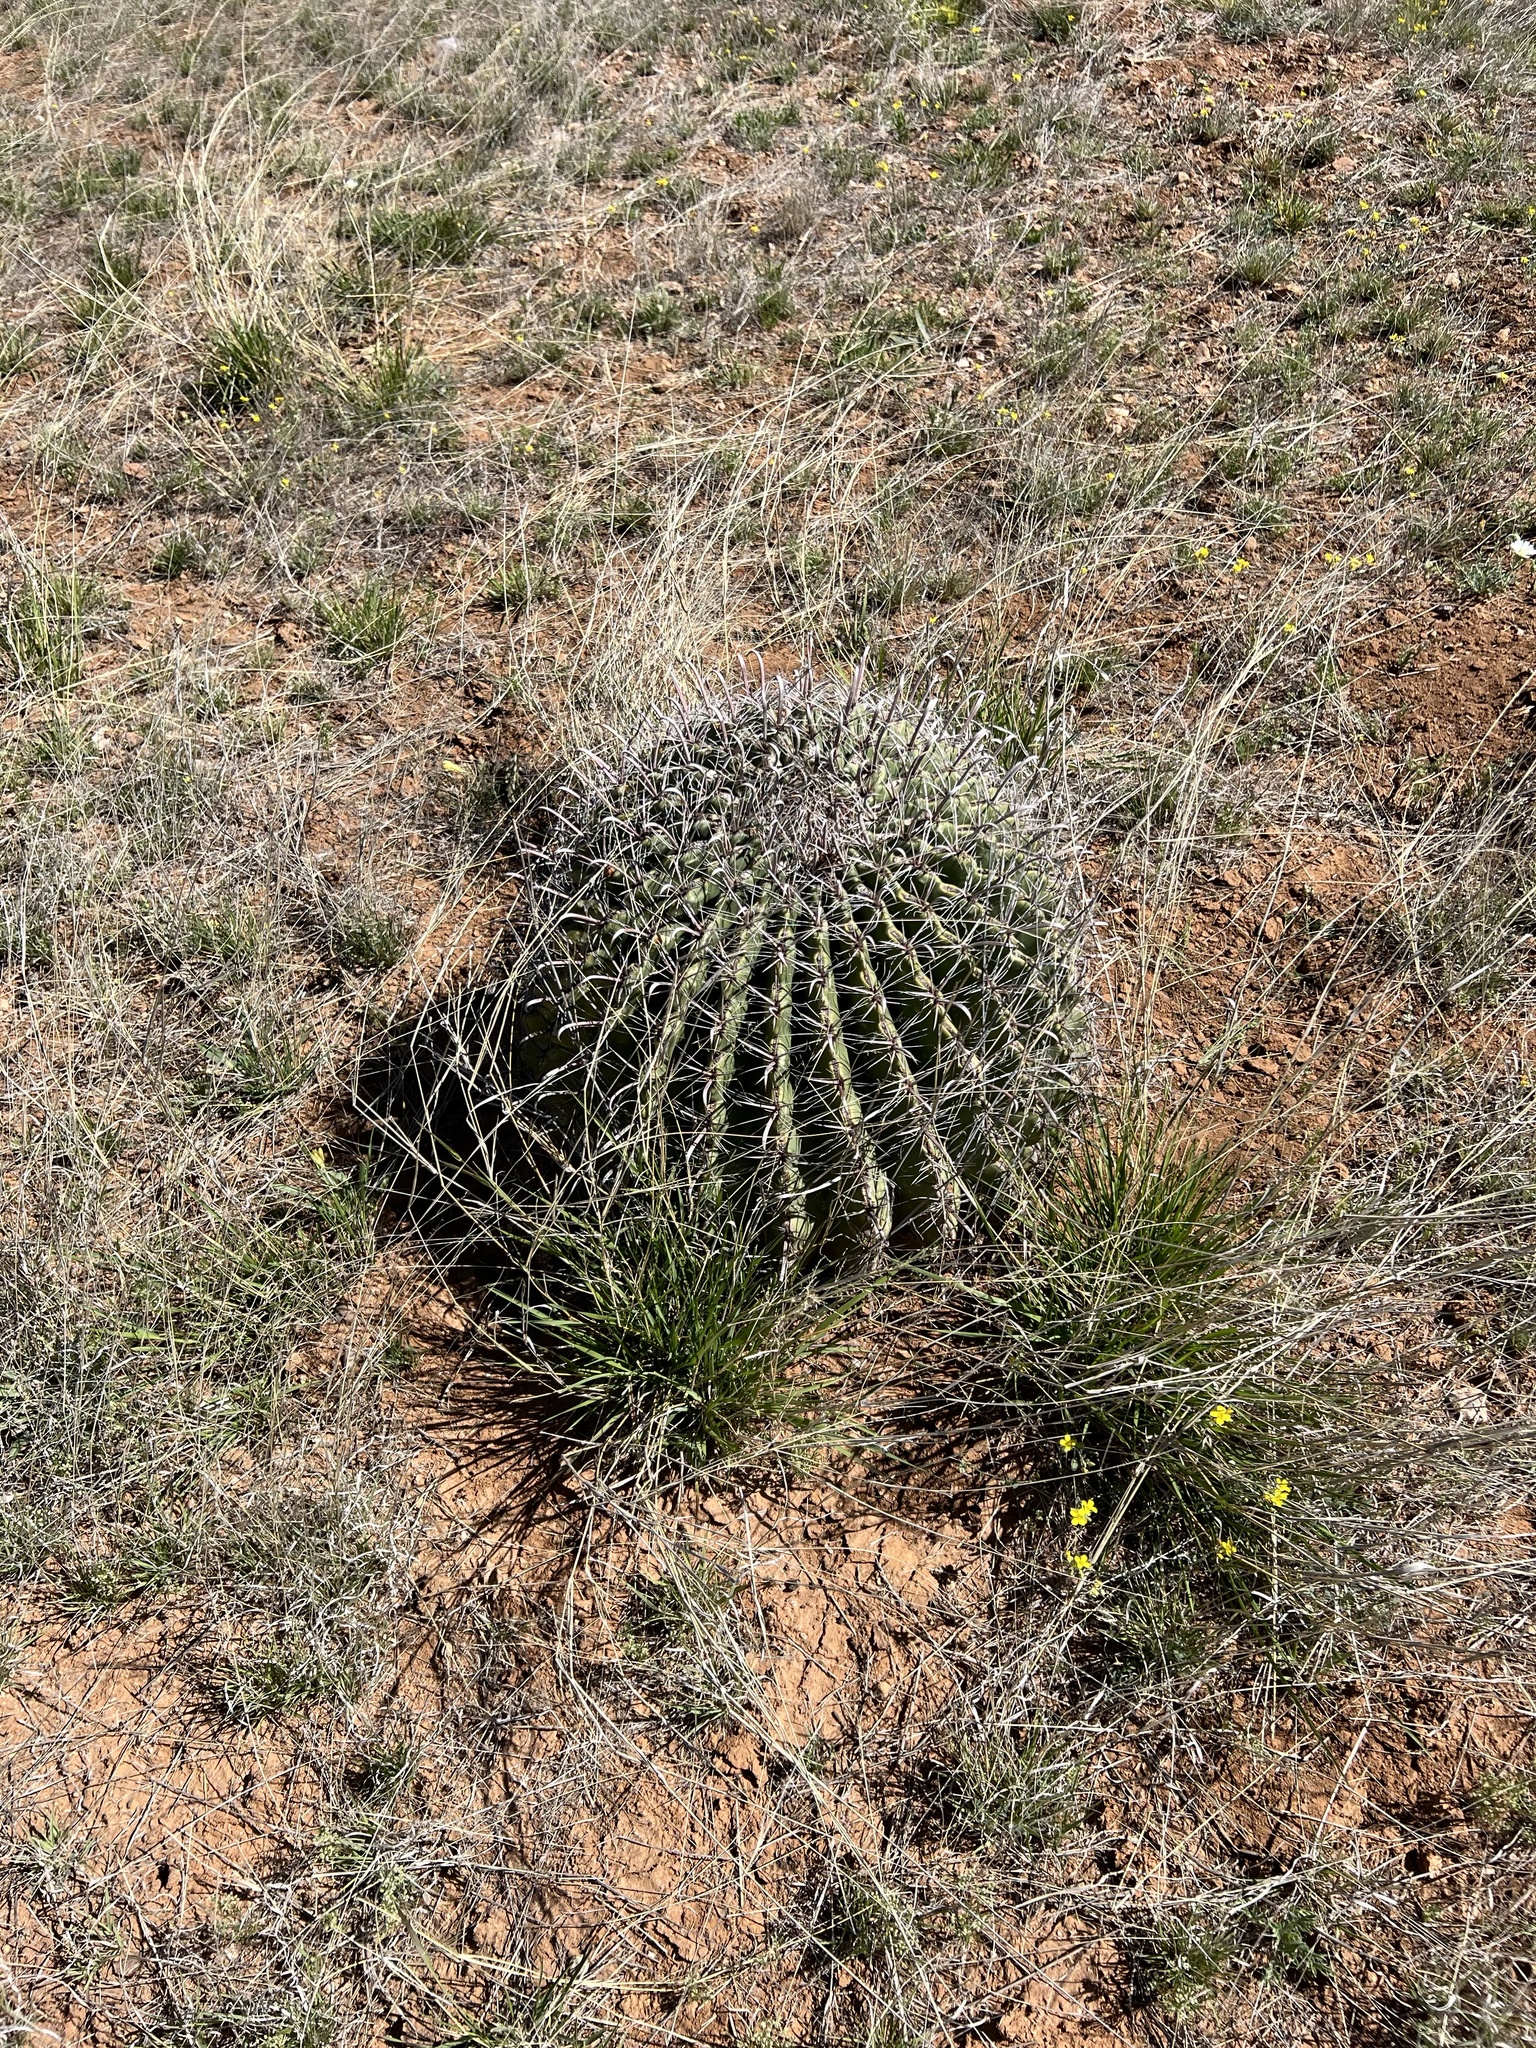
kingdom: Plantae
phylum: Tracheophyta
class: Magnoliopsida
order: Caryophyllales
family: Cactaceae
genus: Ferocactus
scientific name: Ferocactus wislizeni
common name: Candy barrel cactus
